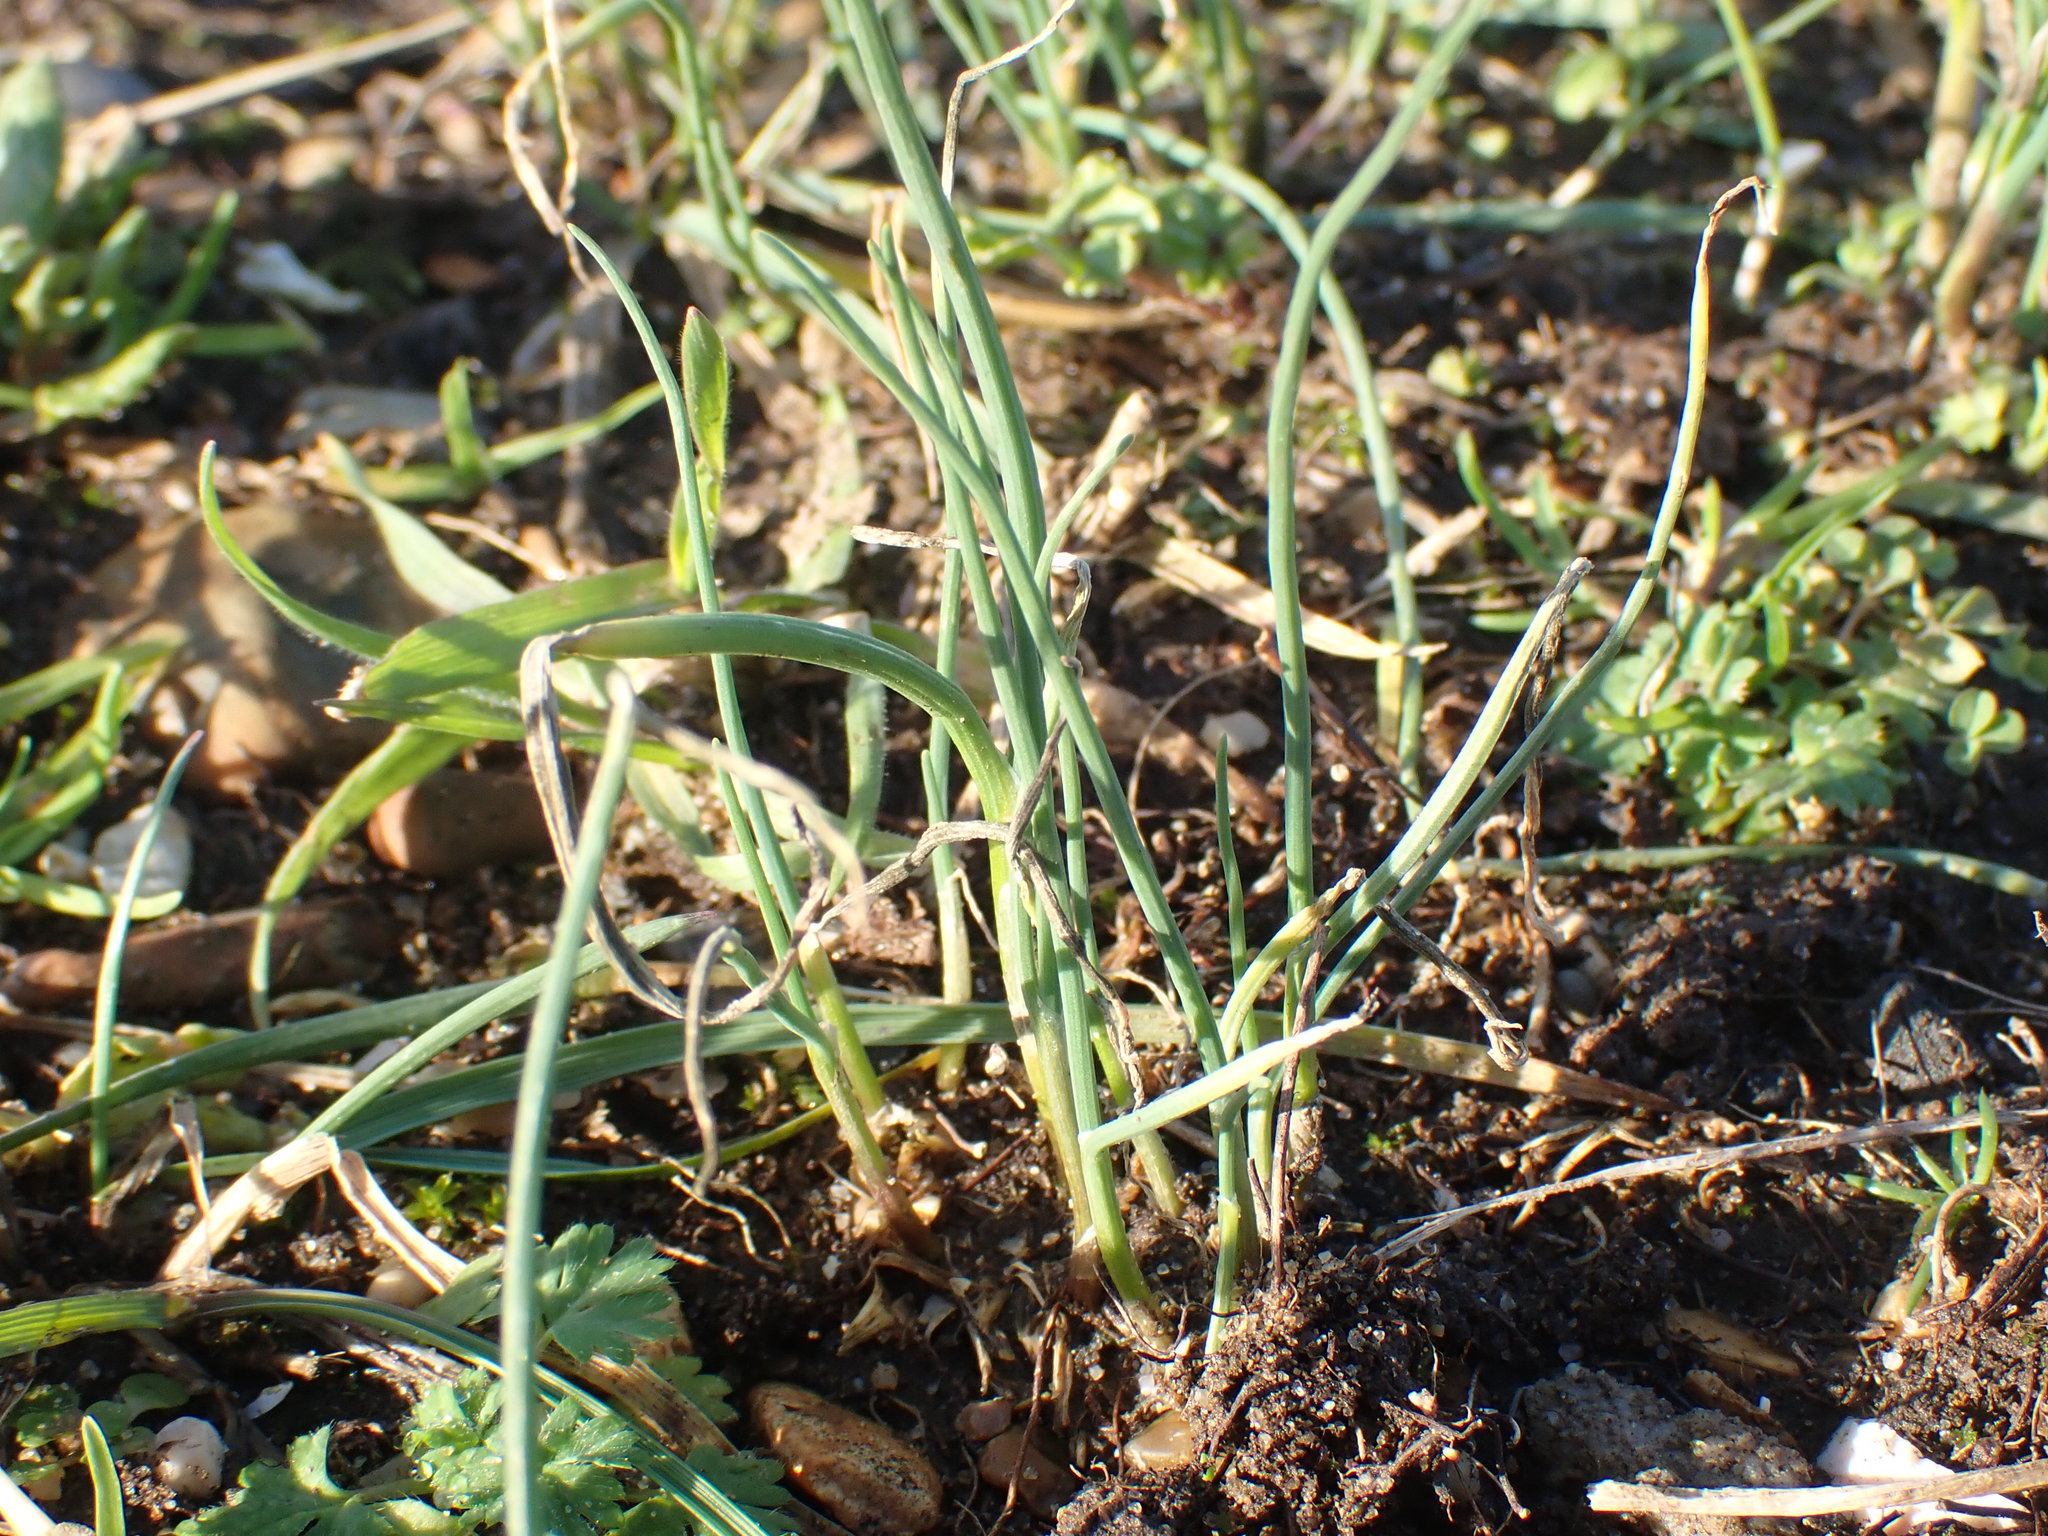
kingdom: Plantae
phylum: Tracheophyta
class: Liliopsida
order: Asparagales
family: Amaryllidaceae
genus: Allium
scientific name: Allium vineale
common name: Crow garlic
